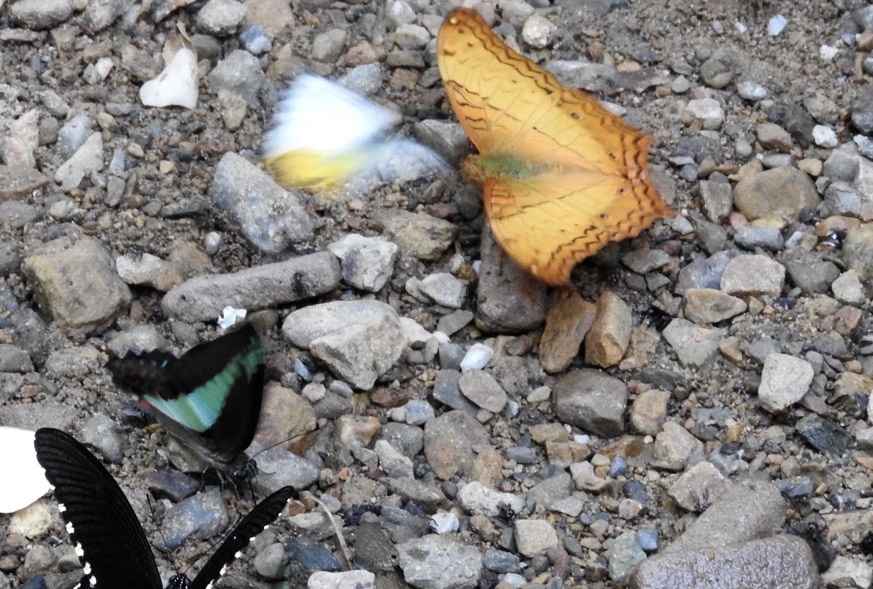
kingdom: Animalia
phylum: Arthropoda
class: Insecta
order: Lepidoptera
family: Nymphalidae
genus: Vindula
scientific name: Vindula erota
